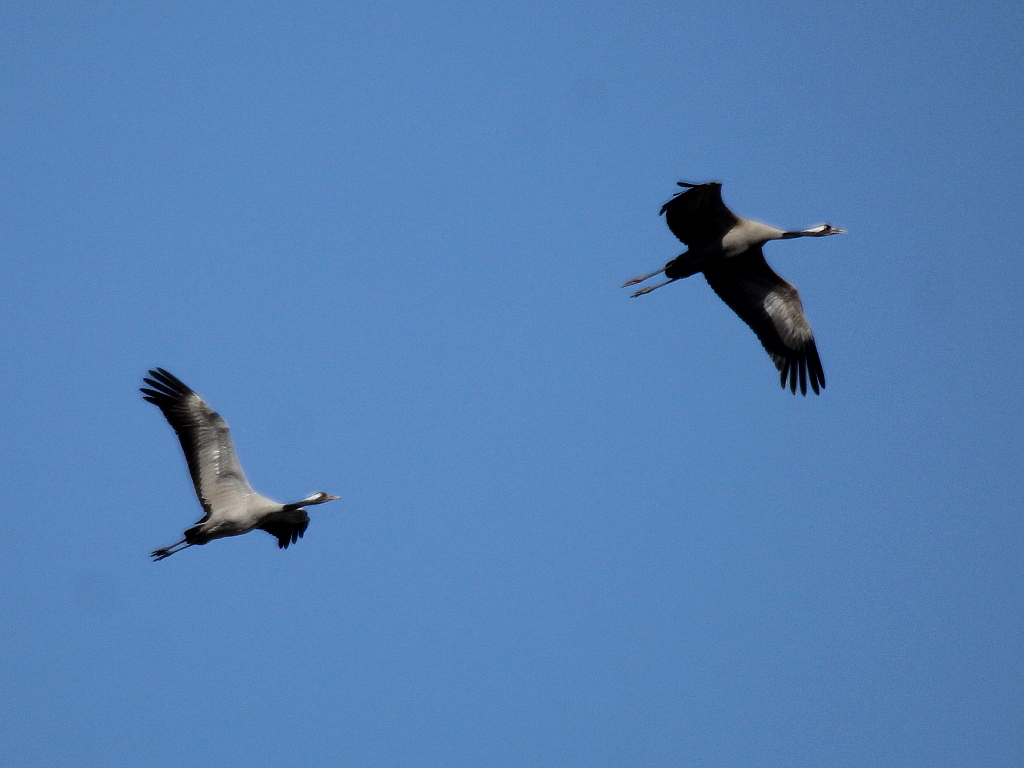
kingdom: Animalia
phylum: Chordata
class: Aves
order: Gruiformes
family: Gruidae
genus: Grus
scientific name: Grus grus
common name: Common crane
